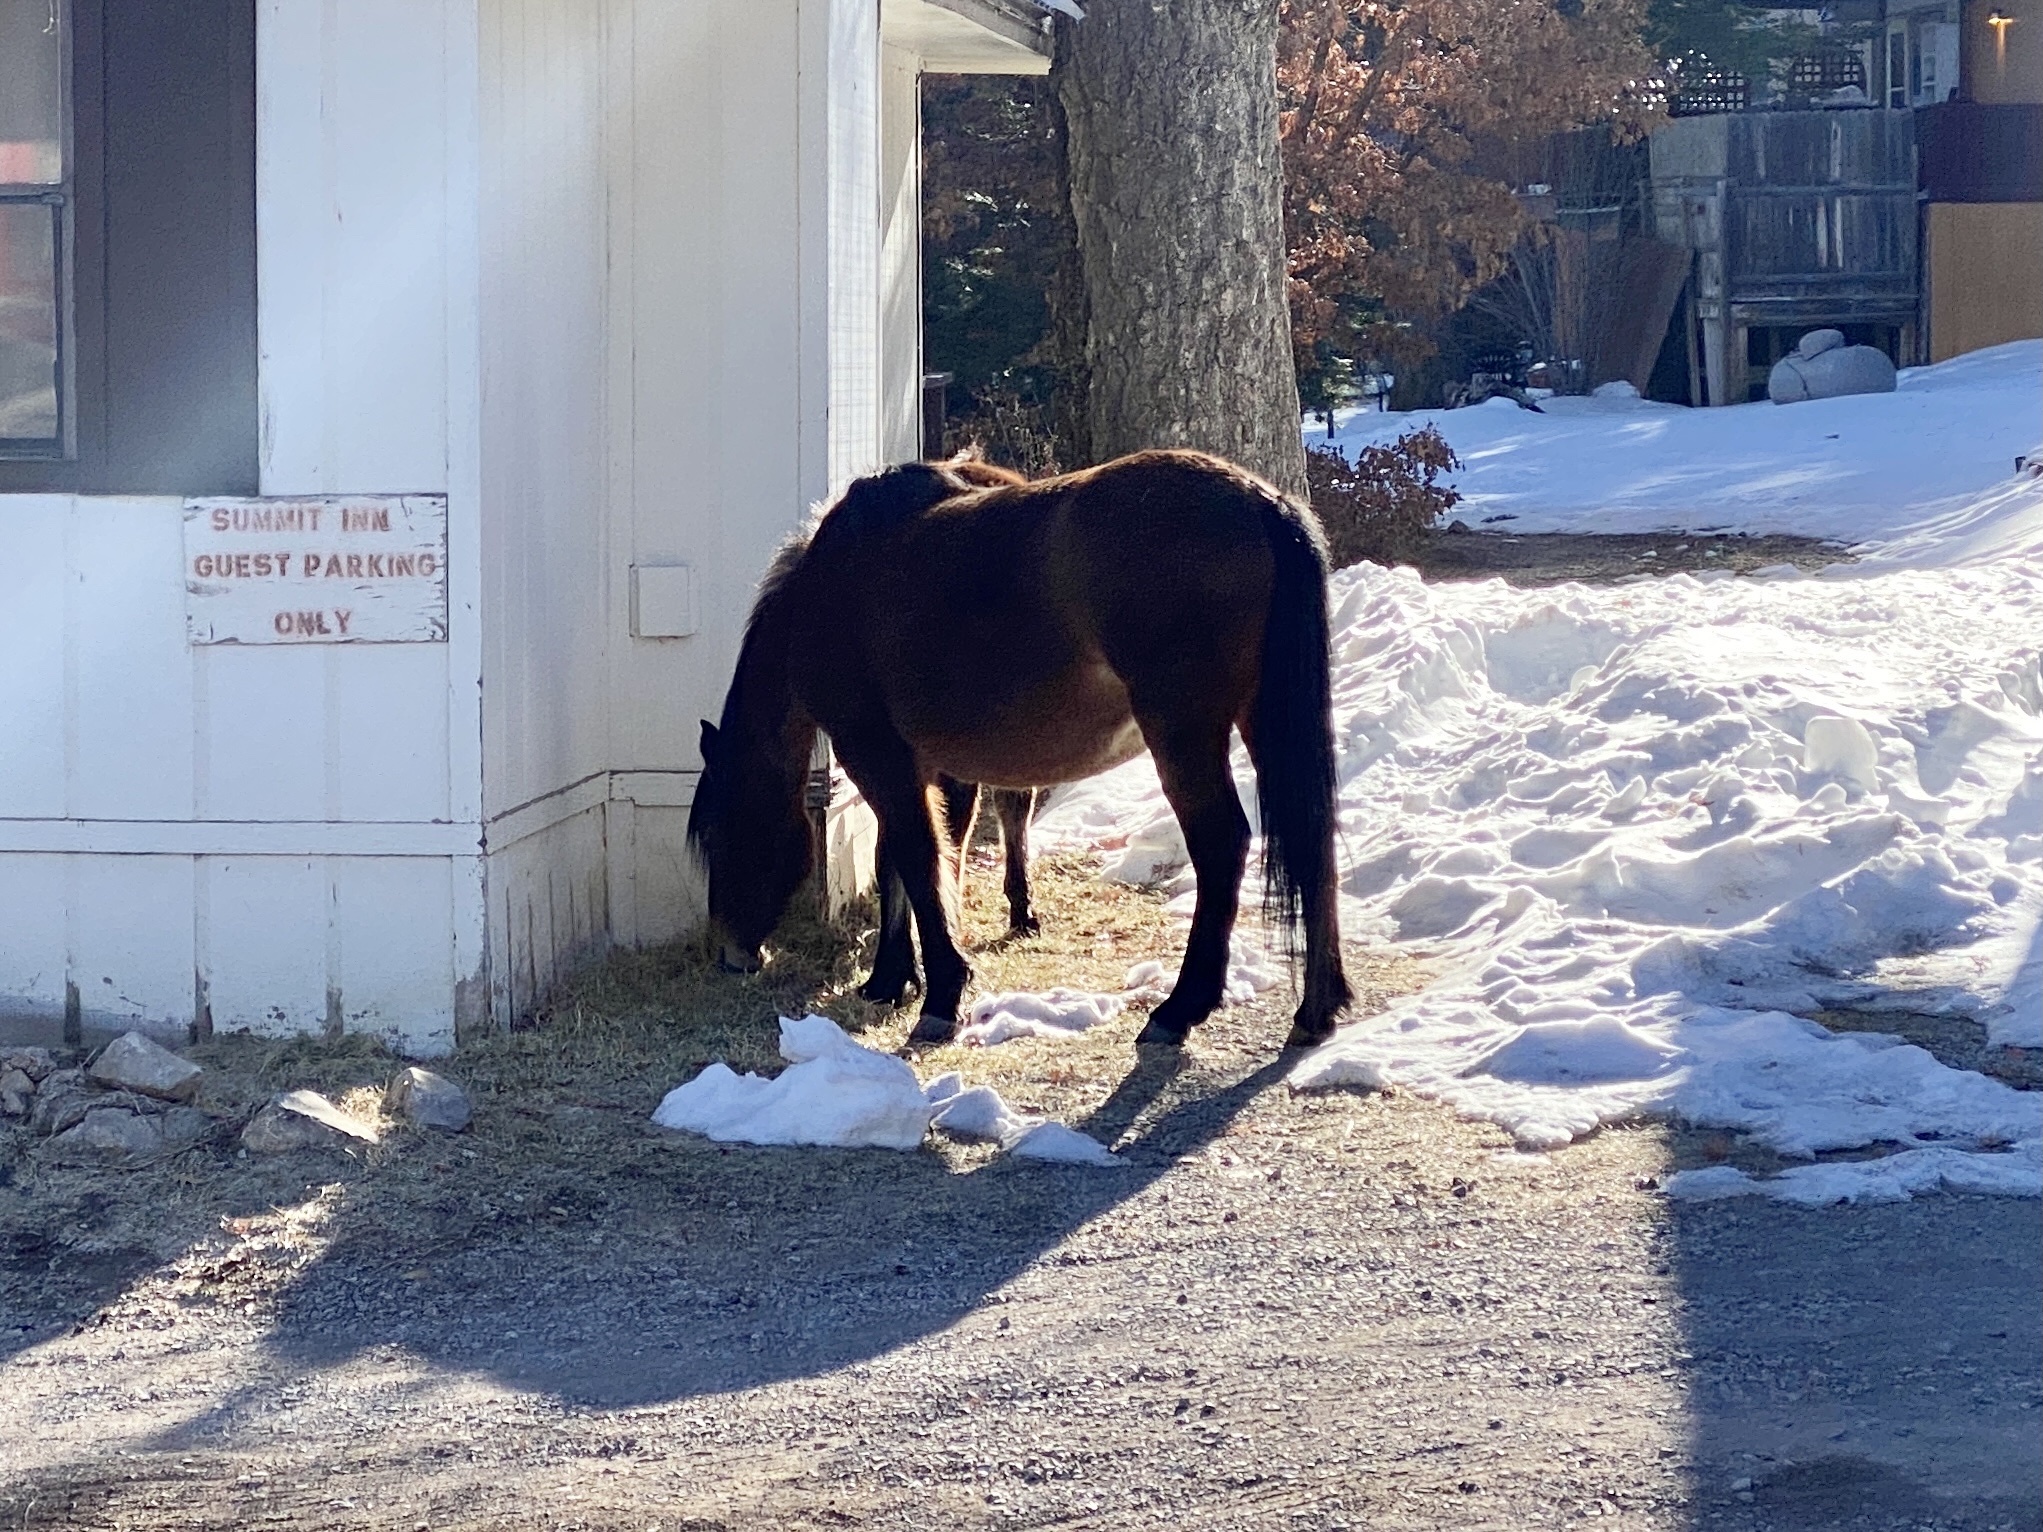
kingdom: Animalia
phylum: Chordata
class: Mammalia
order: Perissodactyla
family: Equidae
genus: Equus
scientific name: Equus caballus
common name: Horse
